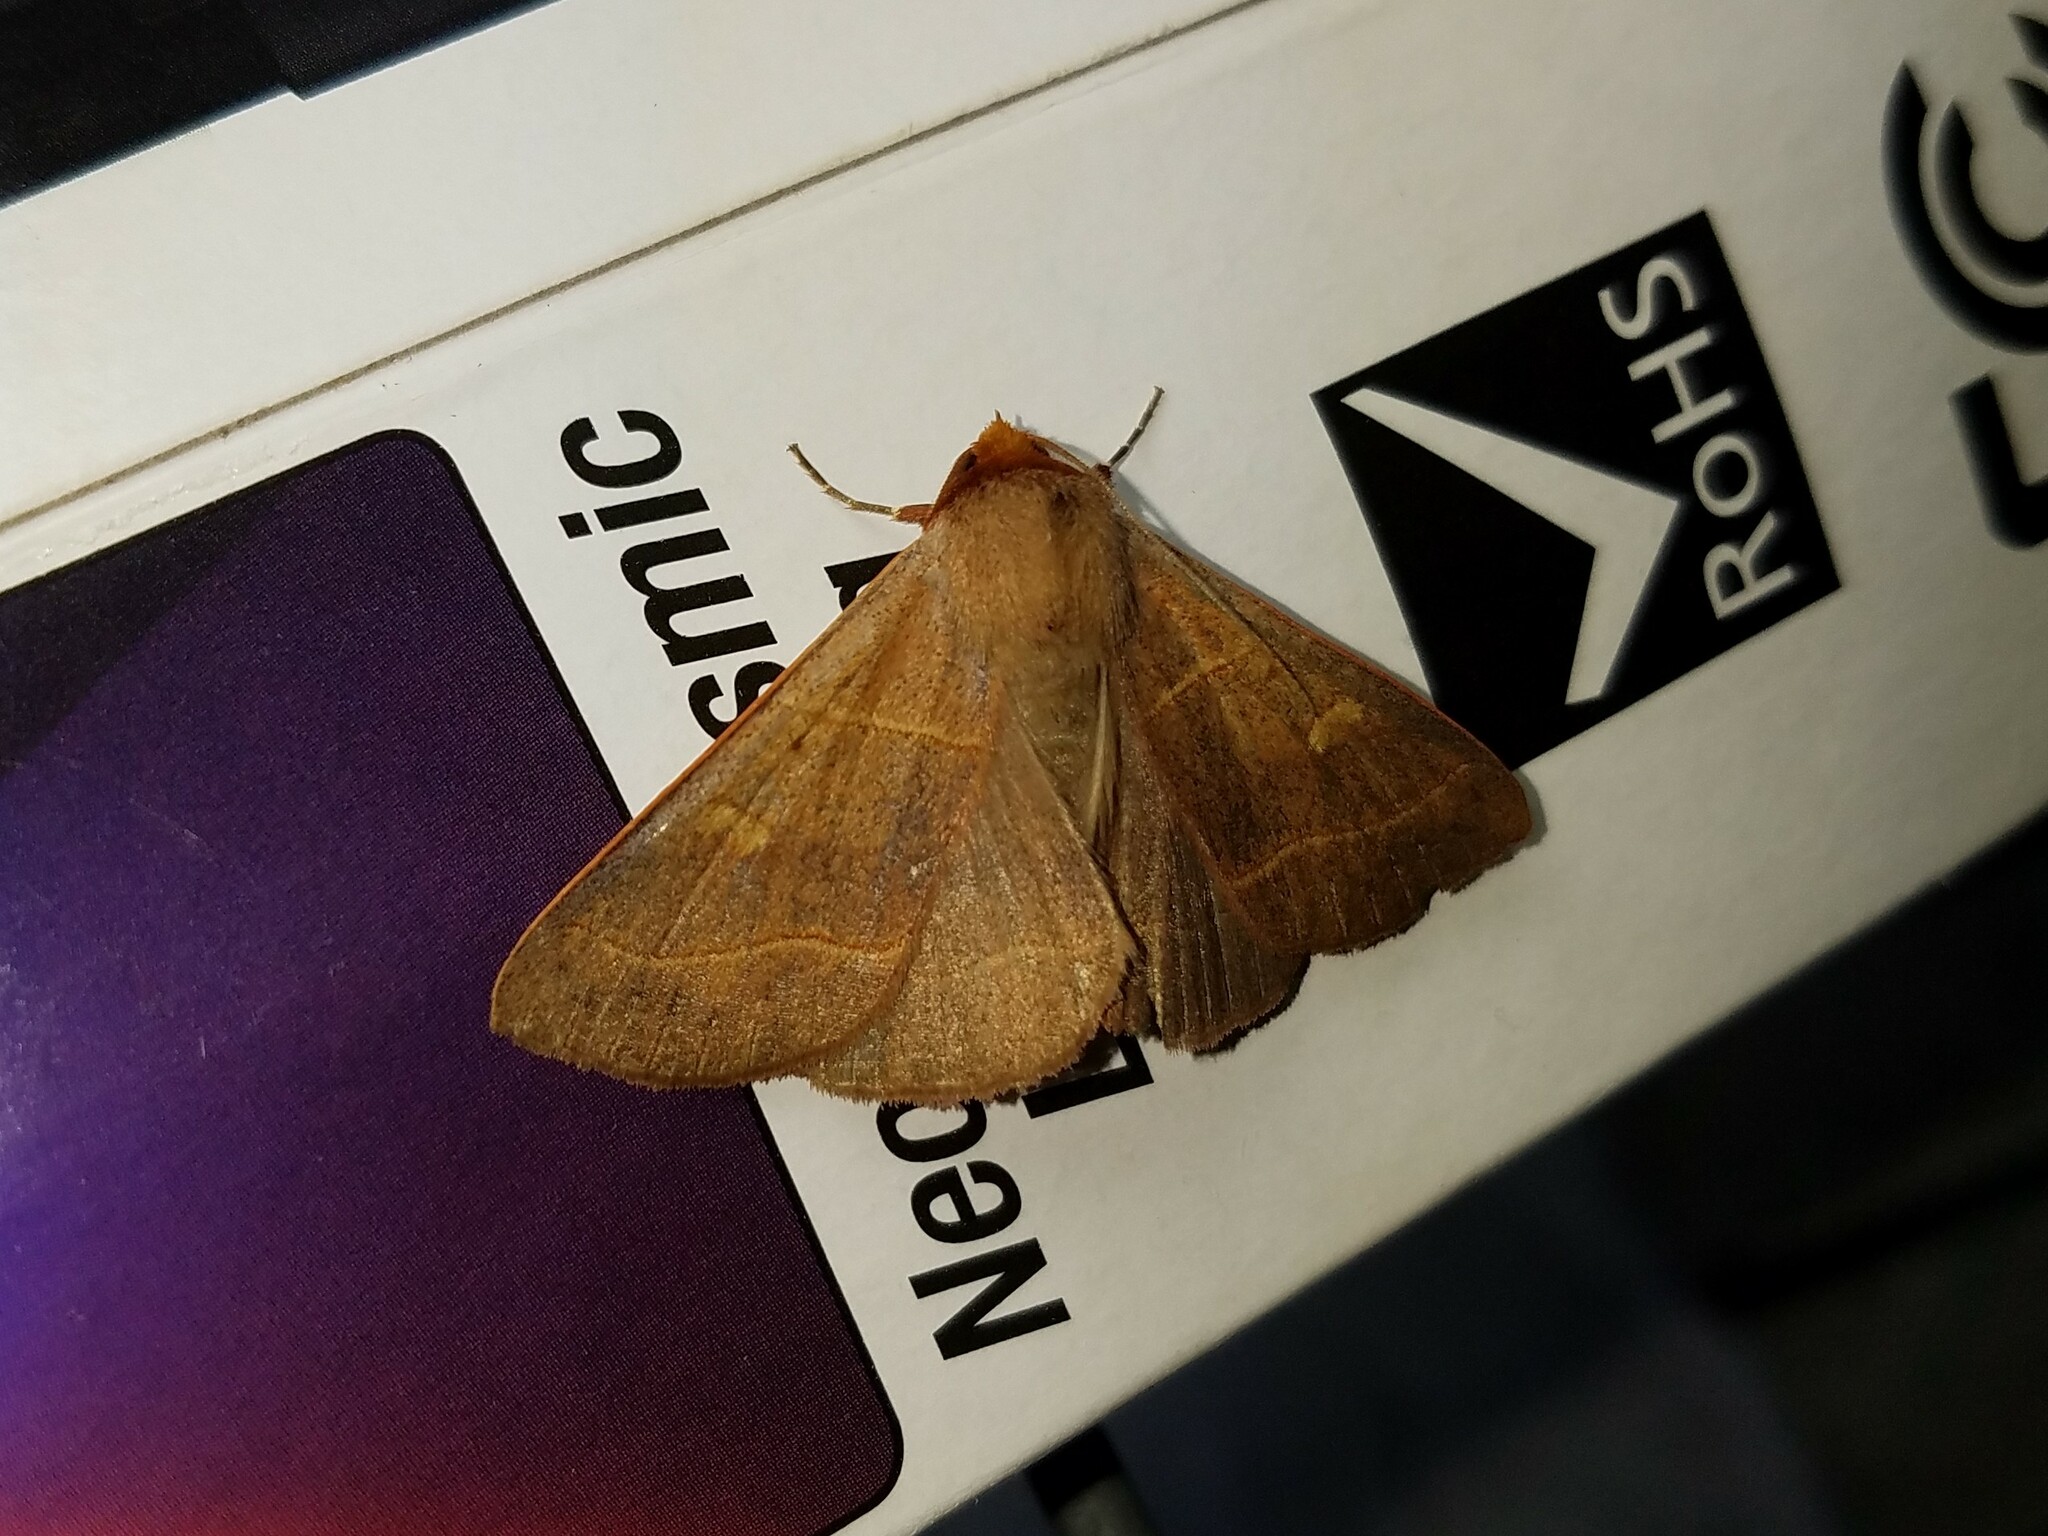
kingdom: Animalia
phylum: Arthropoda
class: Insecta
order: Lepidoptera
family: Erebidae
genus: Panopoda
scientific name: Panopoda rufimargo
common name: Red-lined panopoda moth
